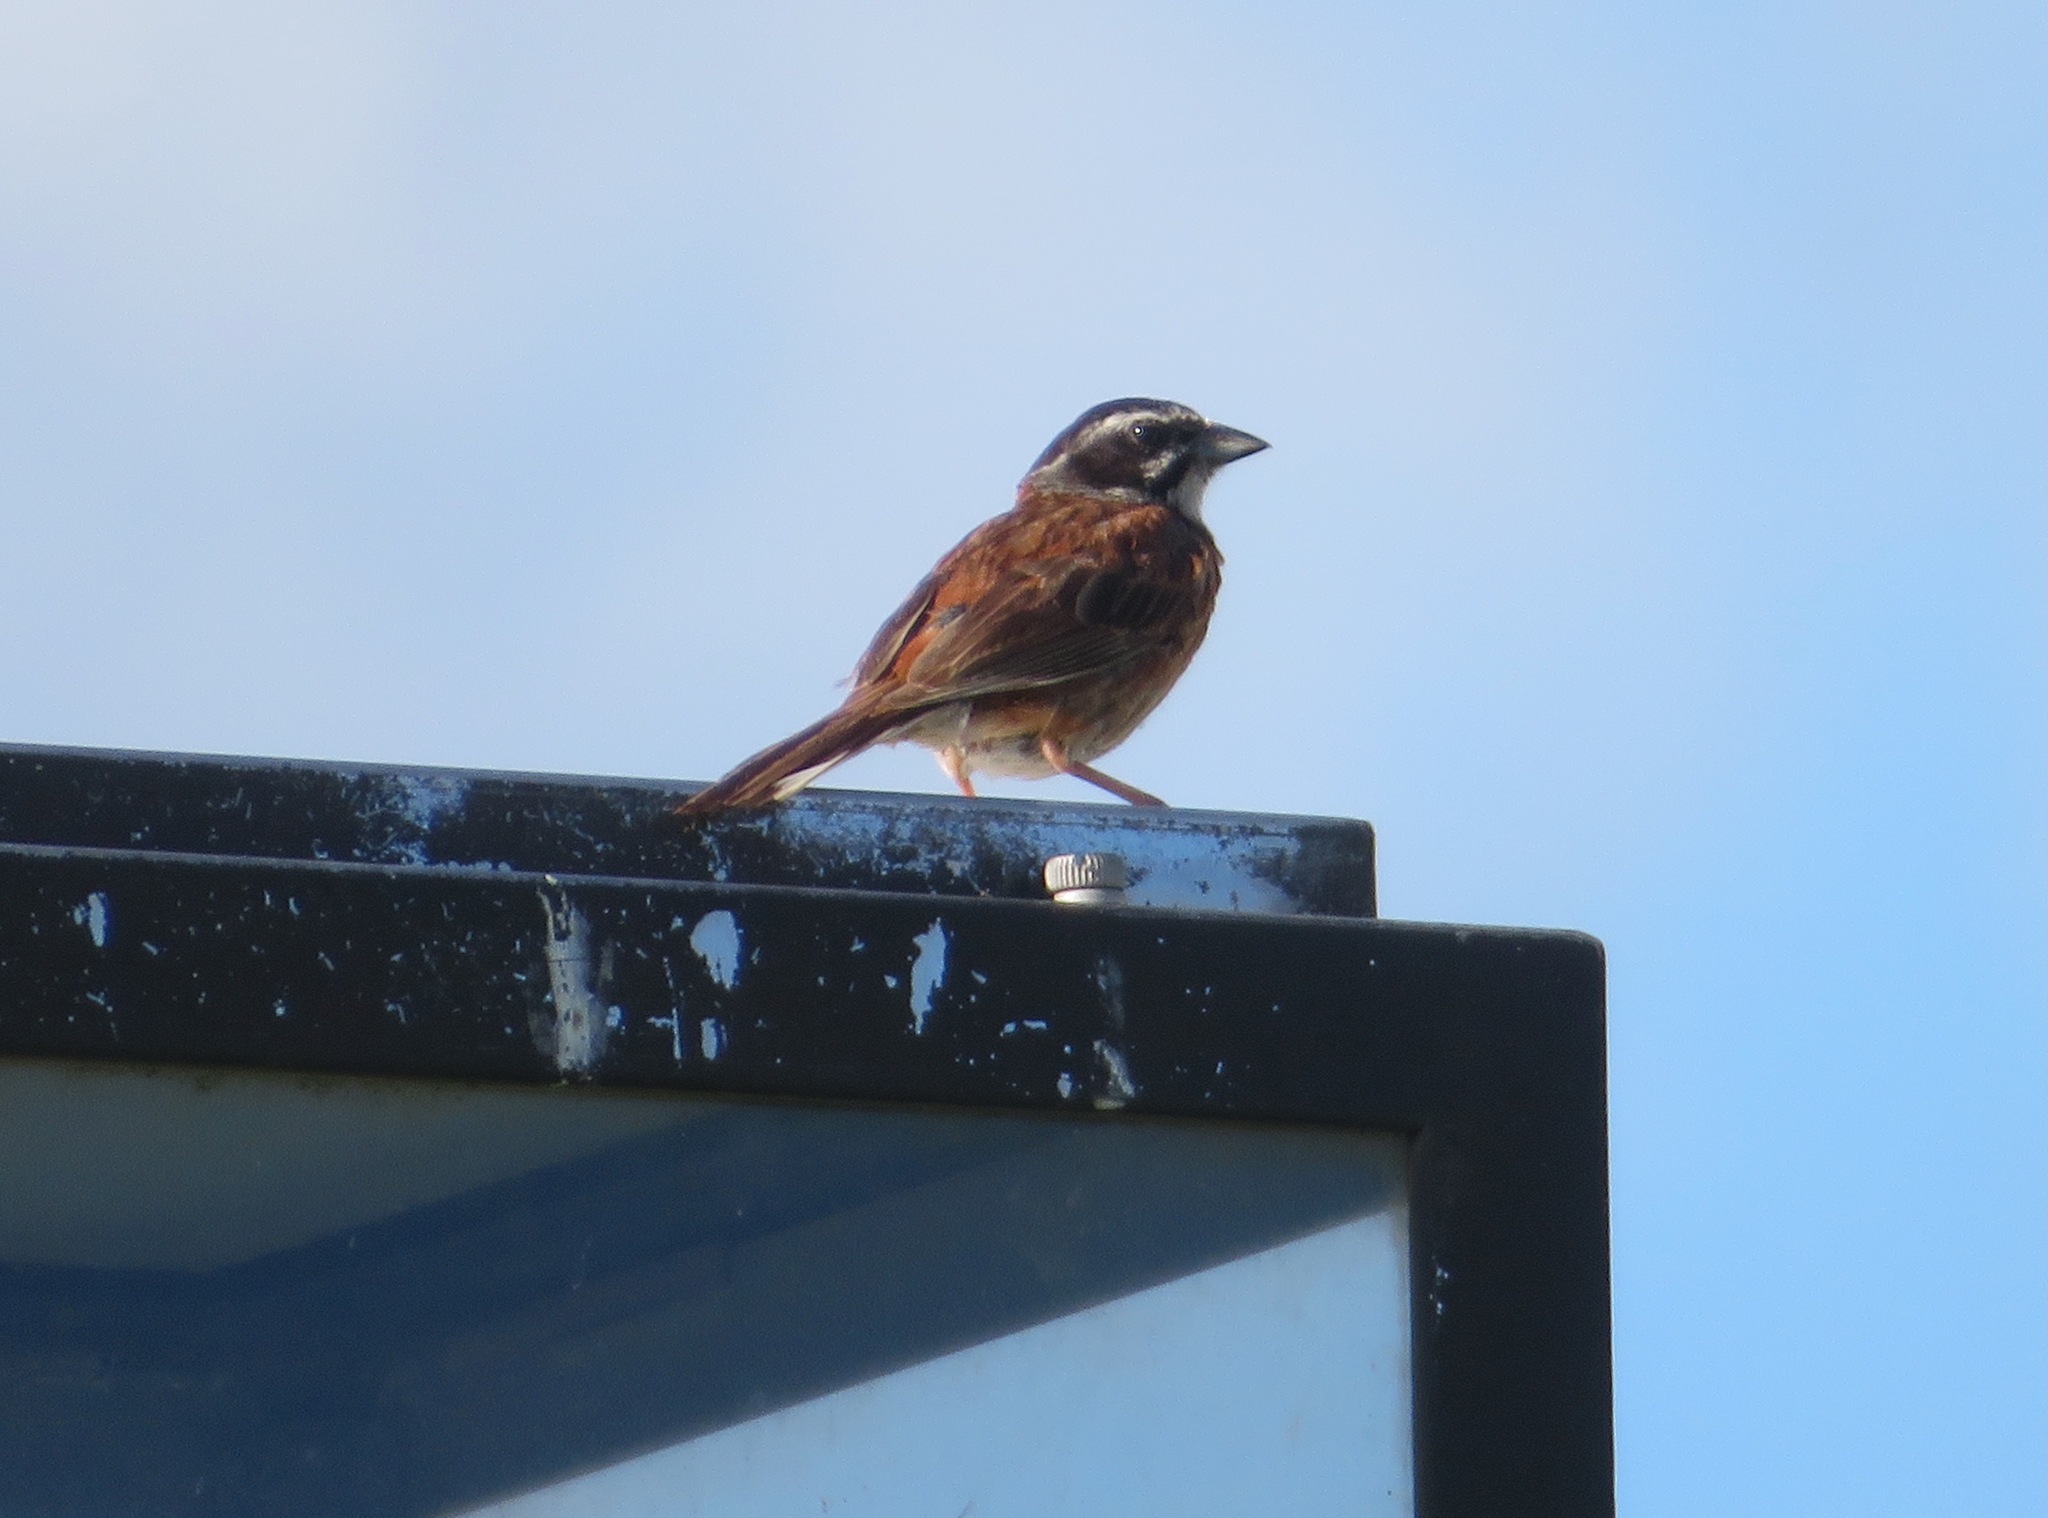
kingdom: Animalia
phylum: Chordata
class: Aves
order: Passeriformes
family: Emberizidae
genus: Emberiza
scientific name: Emberiza cioides
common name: Meadow bunting
